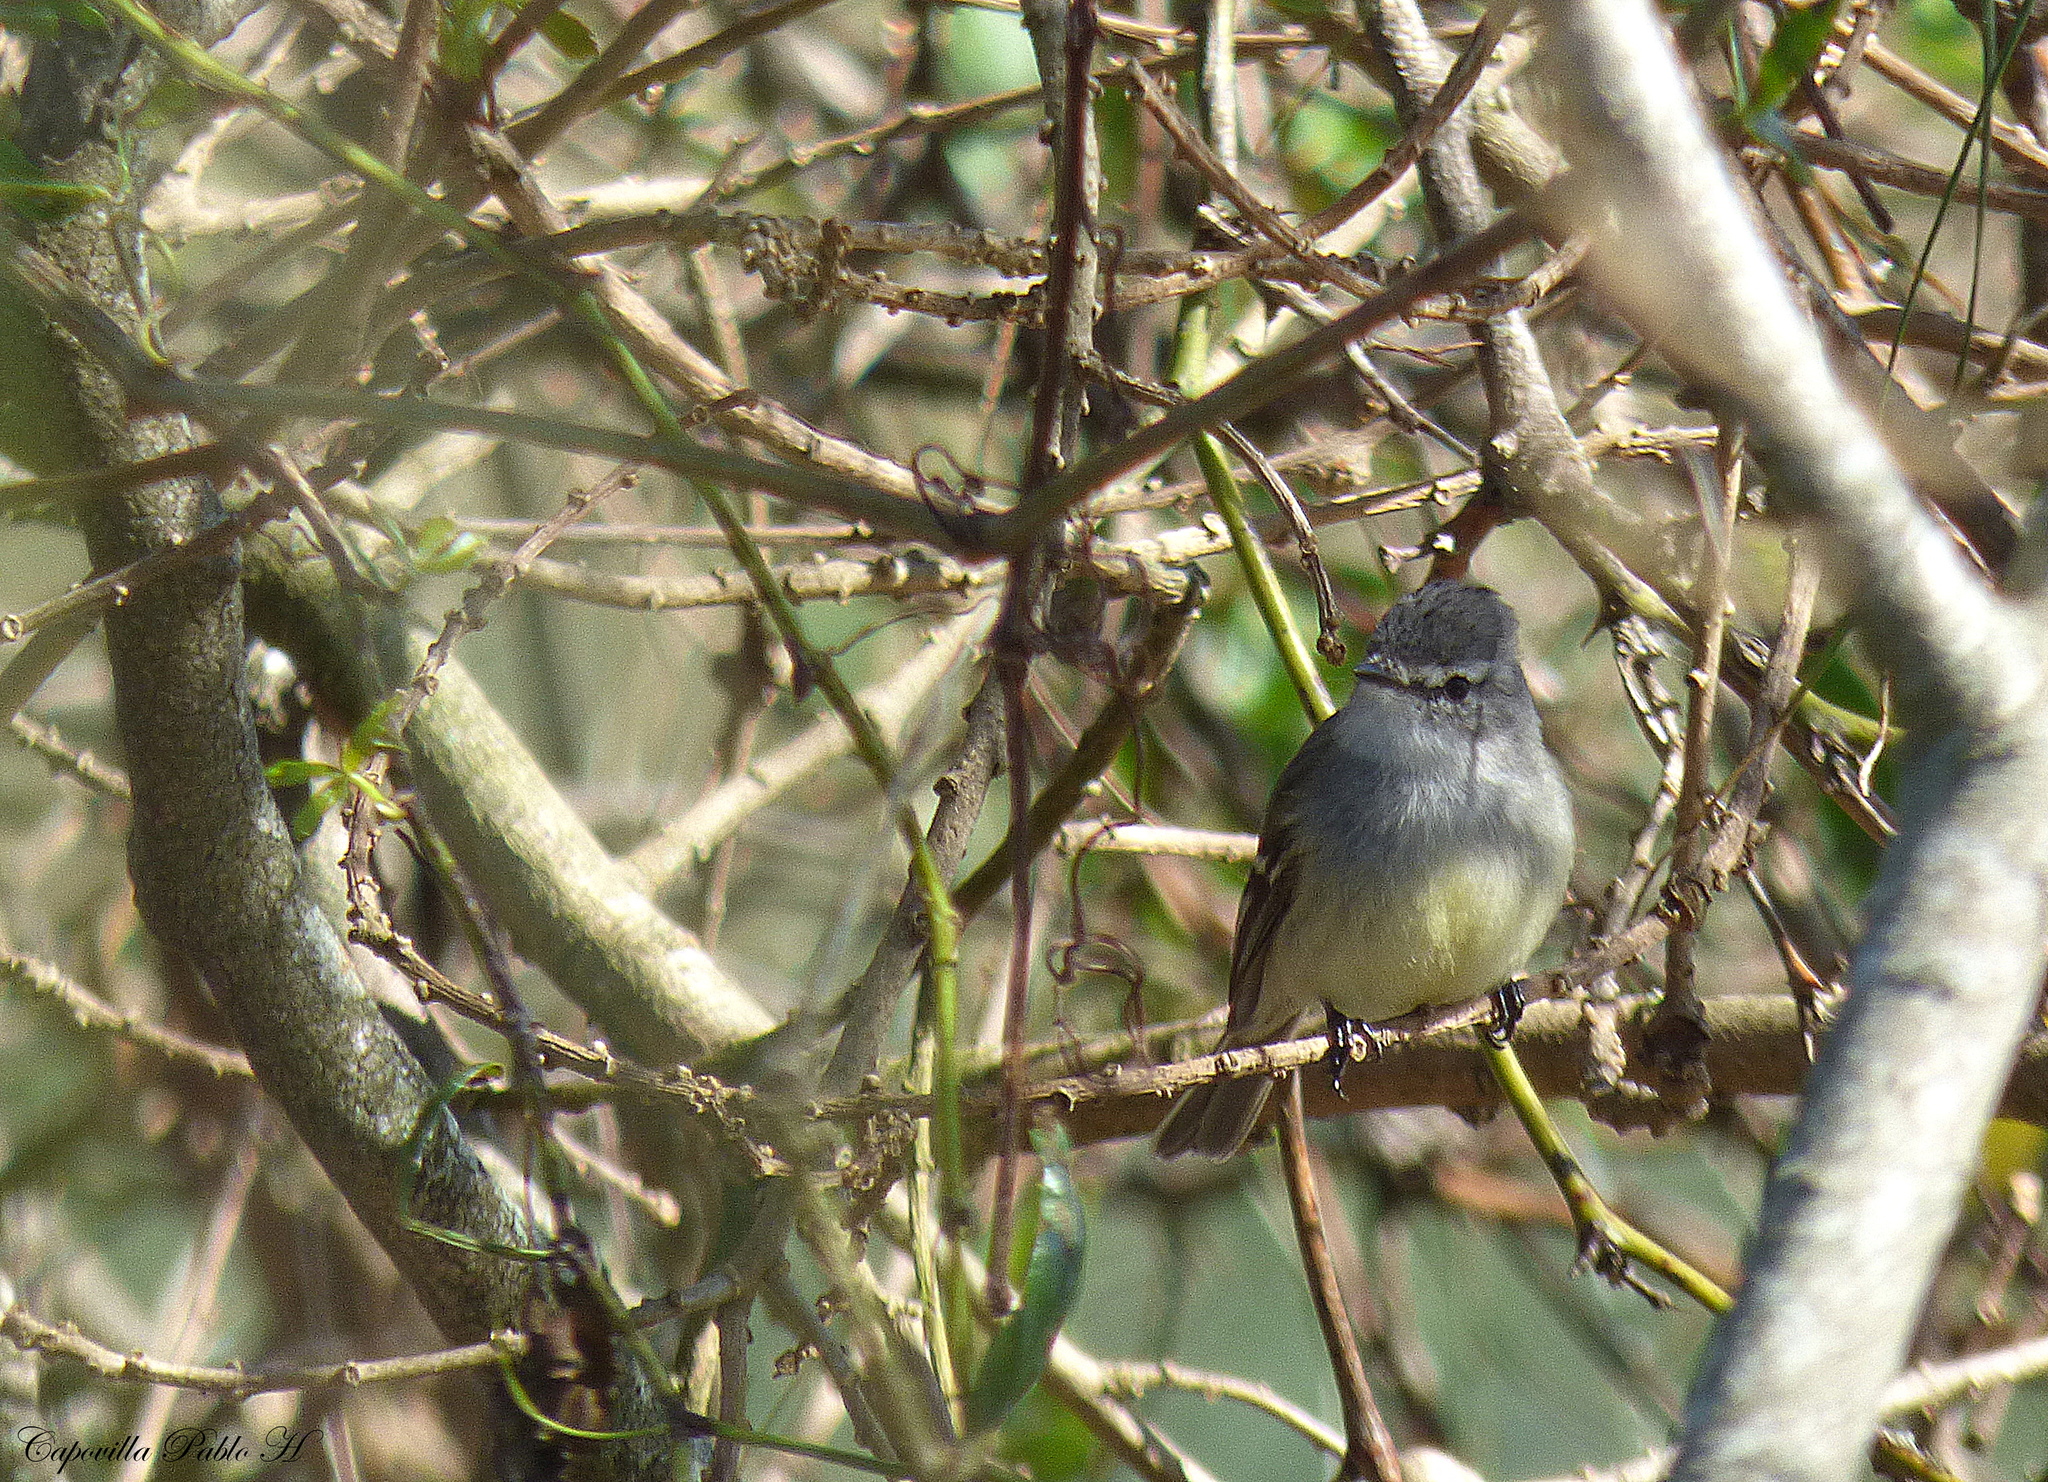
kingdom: Animalia
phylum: Chordata
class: Aves
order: Passeriformes
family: Tyrannidae
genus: Serpophaga
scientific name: Serpophaga griseicapilla
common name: Straneck's tyrannulet
